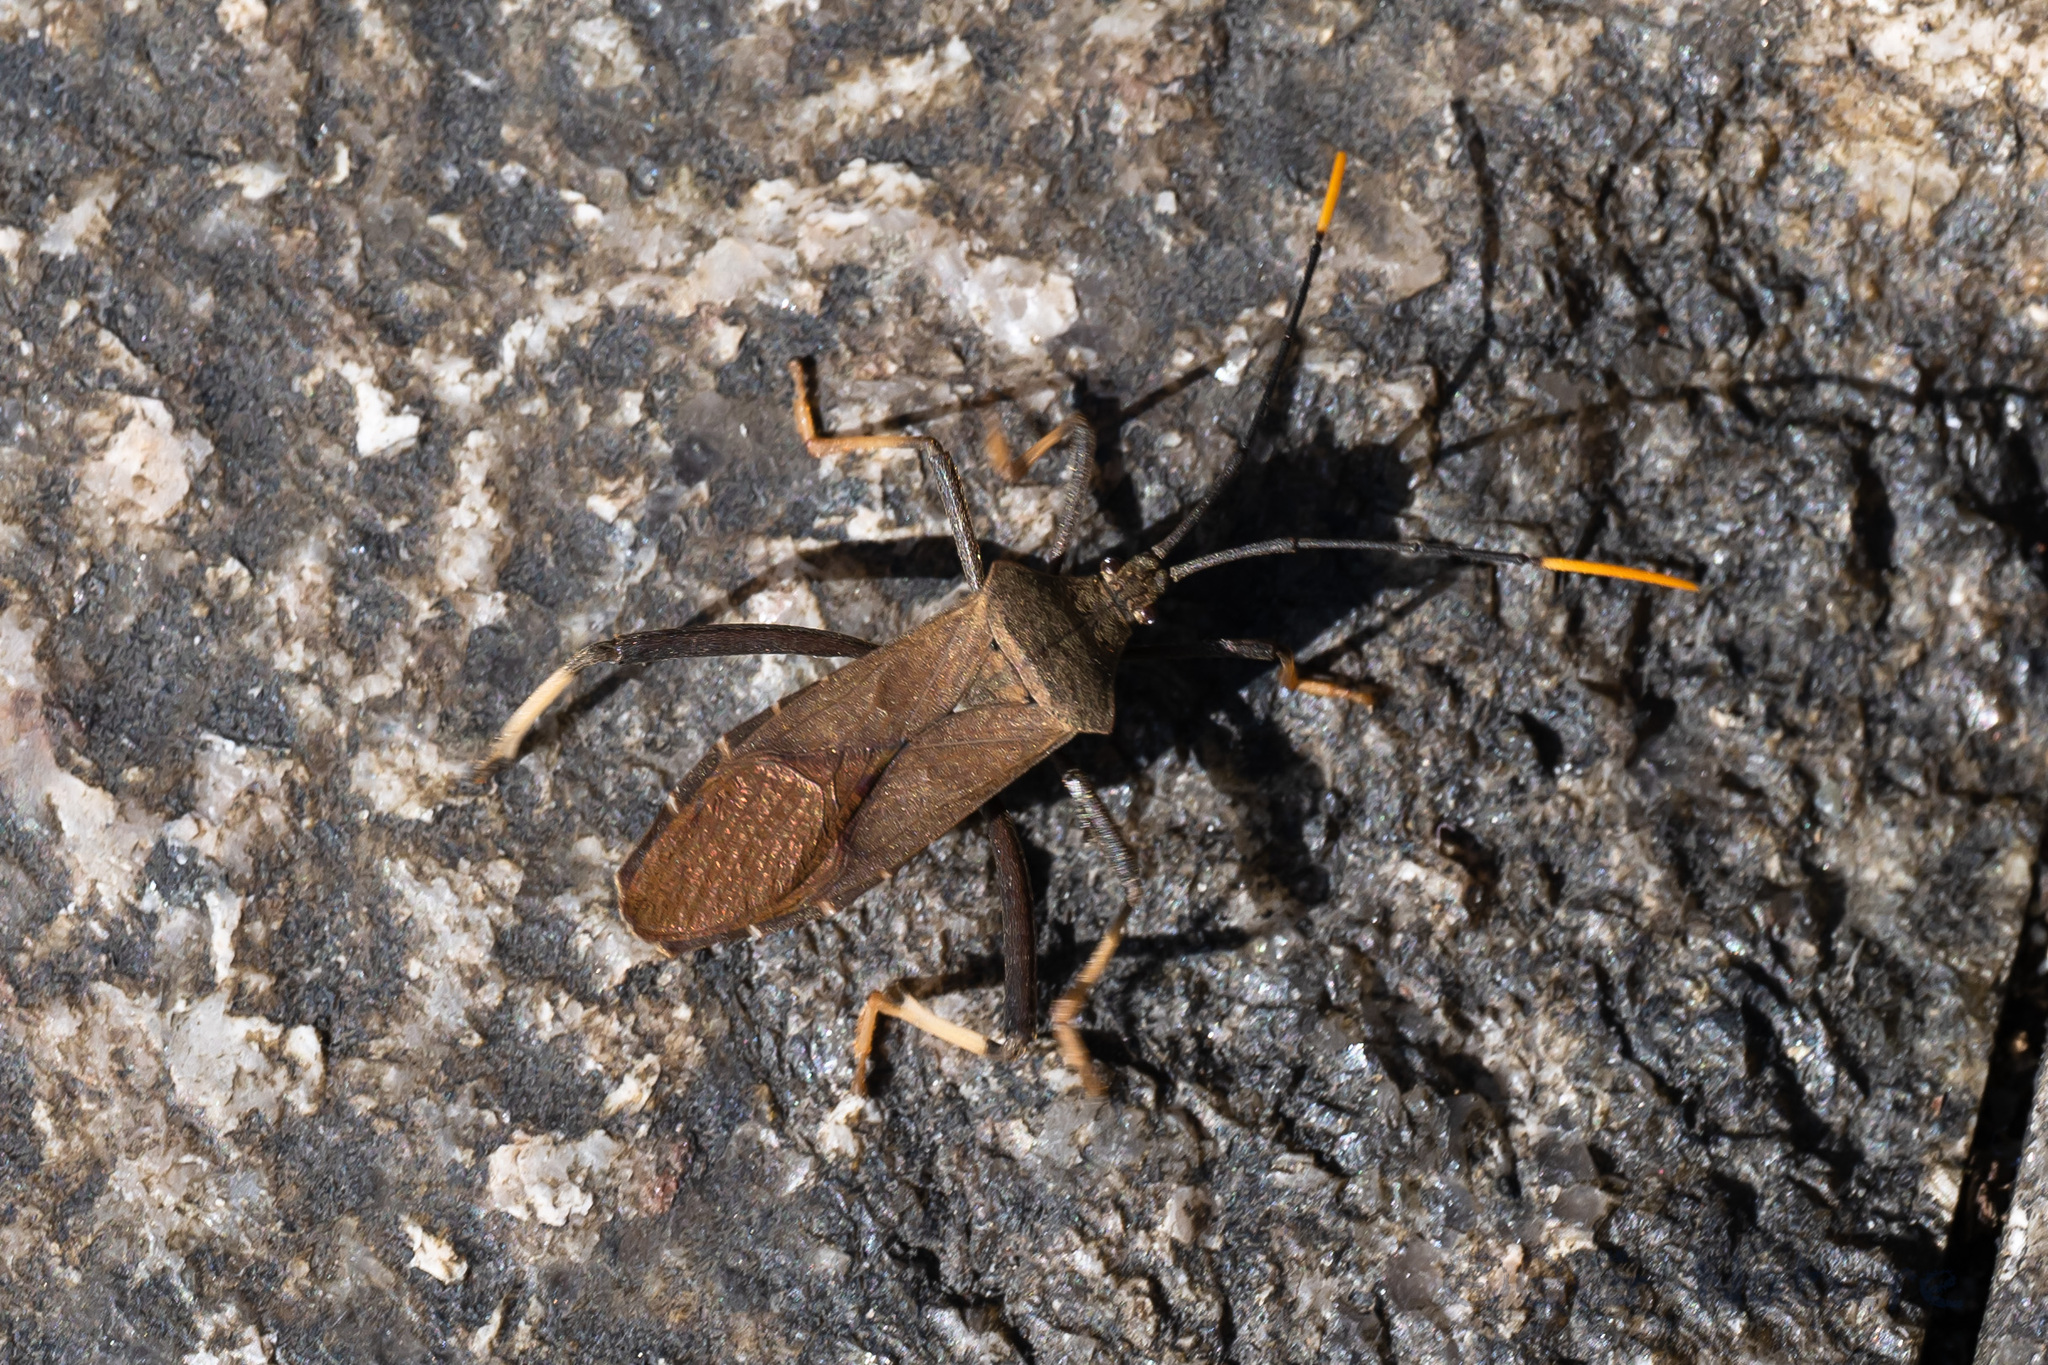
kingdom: Animalia
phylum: Arthropoda
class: Insecta
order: Hemiptera
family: Coreidae
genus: Mictis
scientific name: Mictis serina
